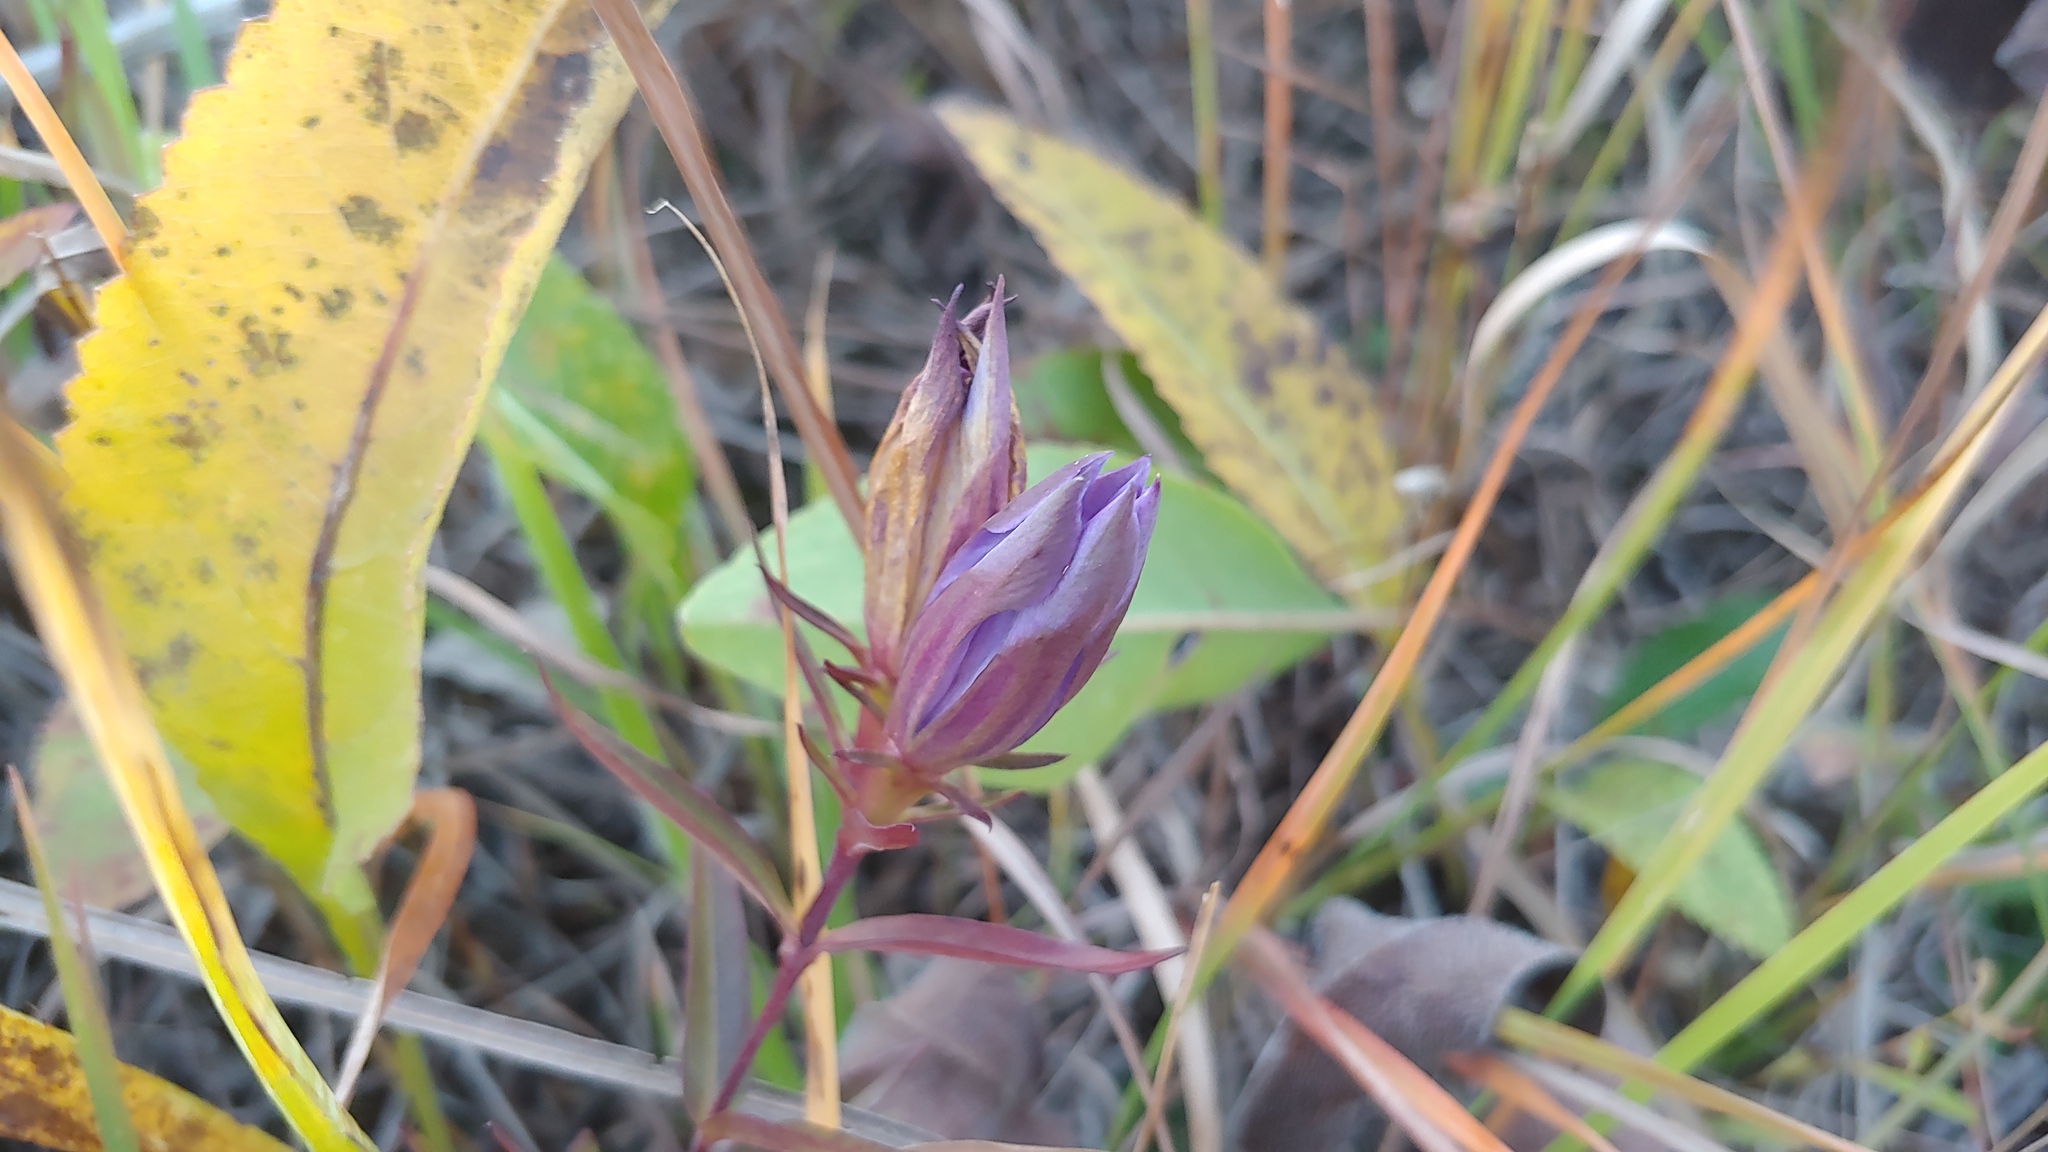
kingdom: Plantae
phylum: Tracheophyta
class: Magnoliopsida
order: Gentianales
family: Gentianaceae
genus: Gentiana
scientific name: Gentiana puberulenta
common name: Downy gentian
